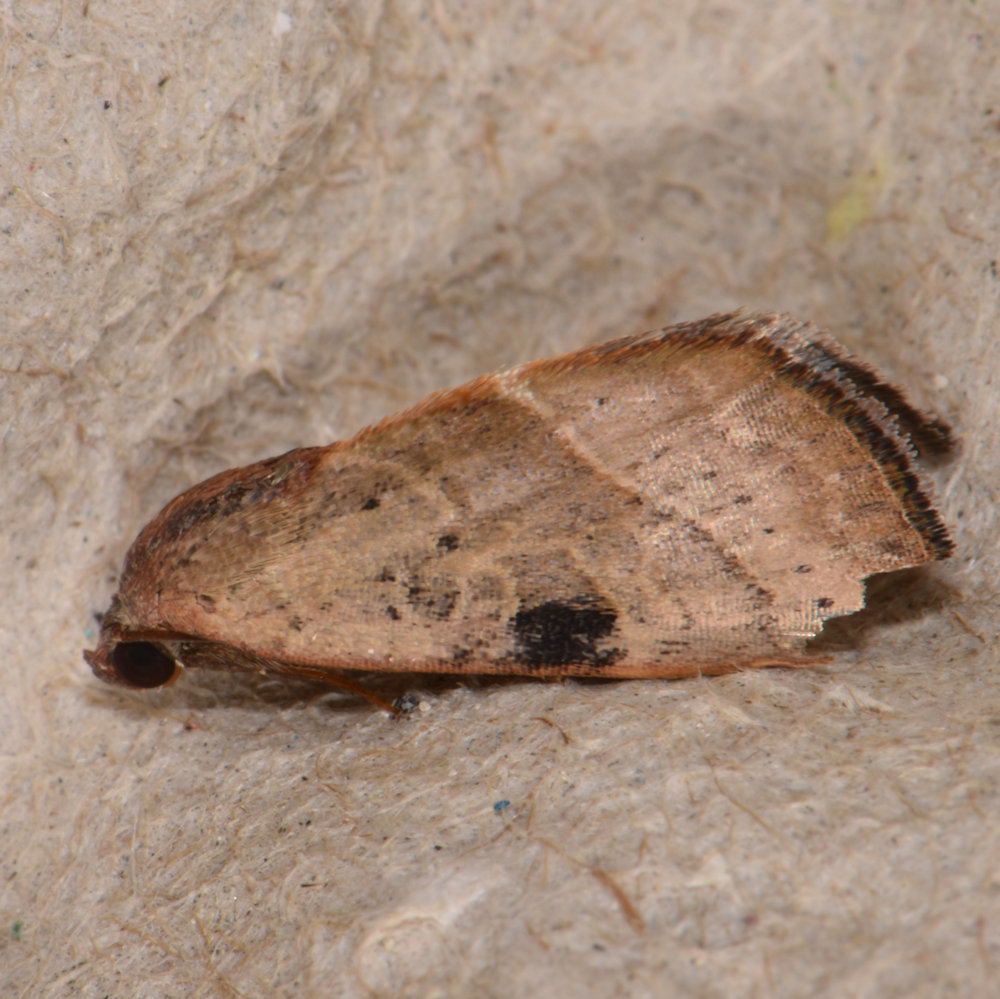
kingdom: Animalia
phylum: Arthropoda
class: Insecta
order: Lepidoptera
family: Noctuidae
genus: Galgula
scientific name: Galgula partita
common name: Wedgeling
